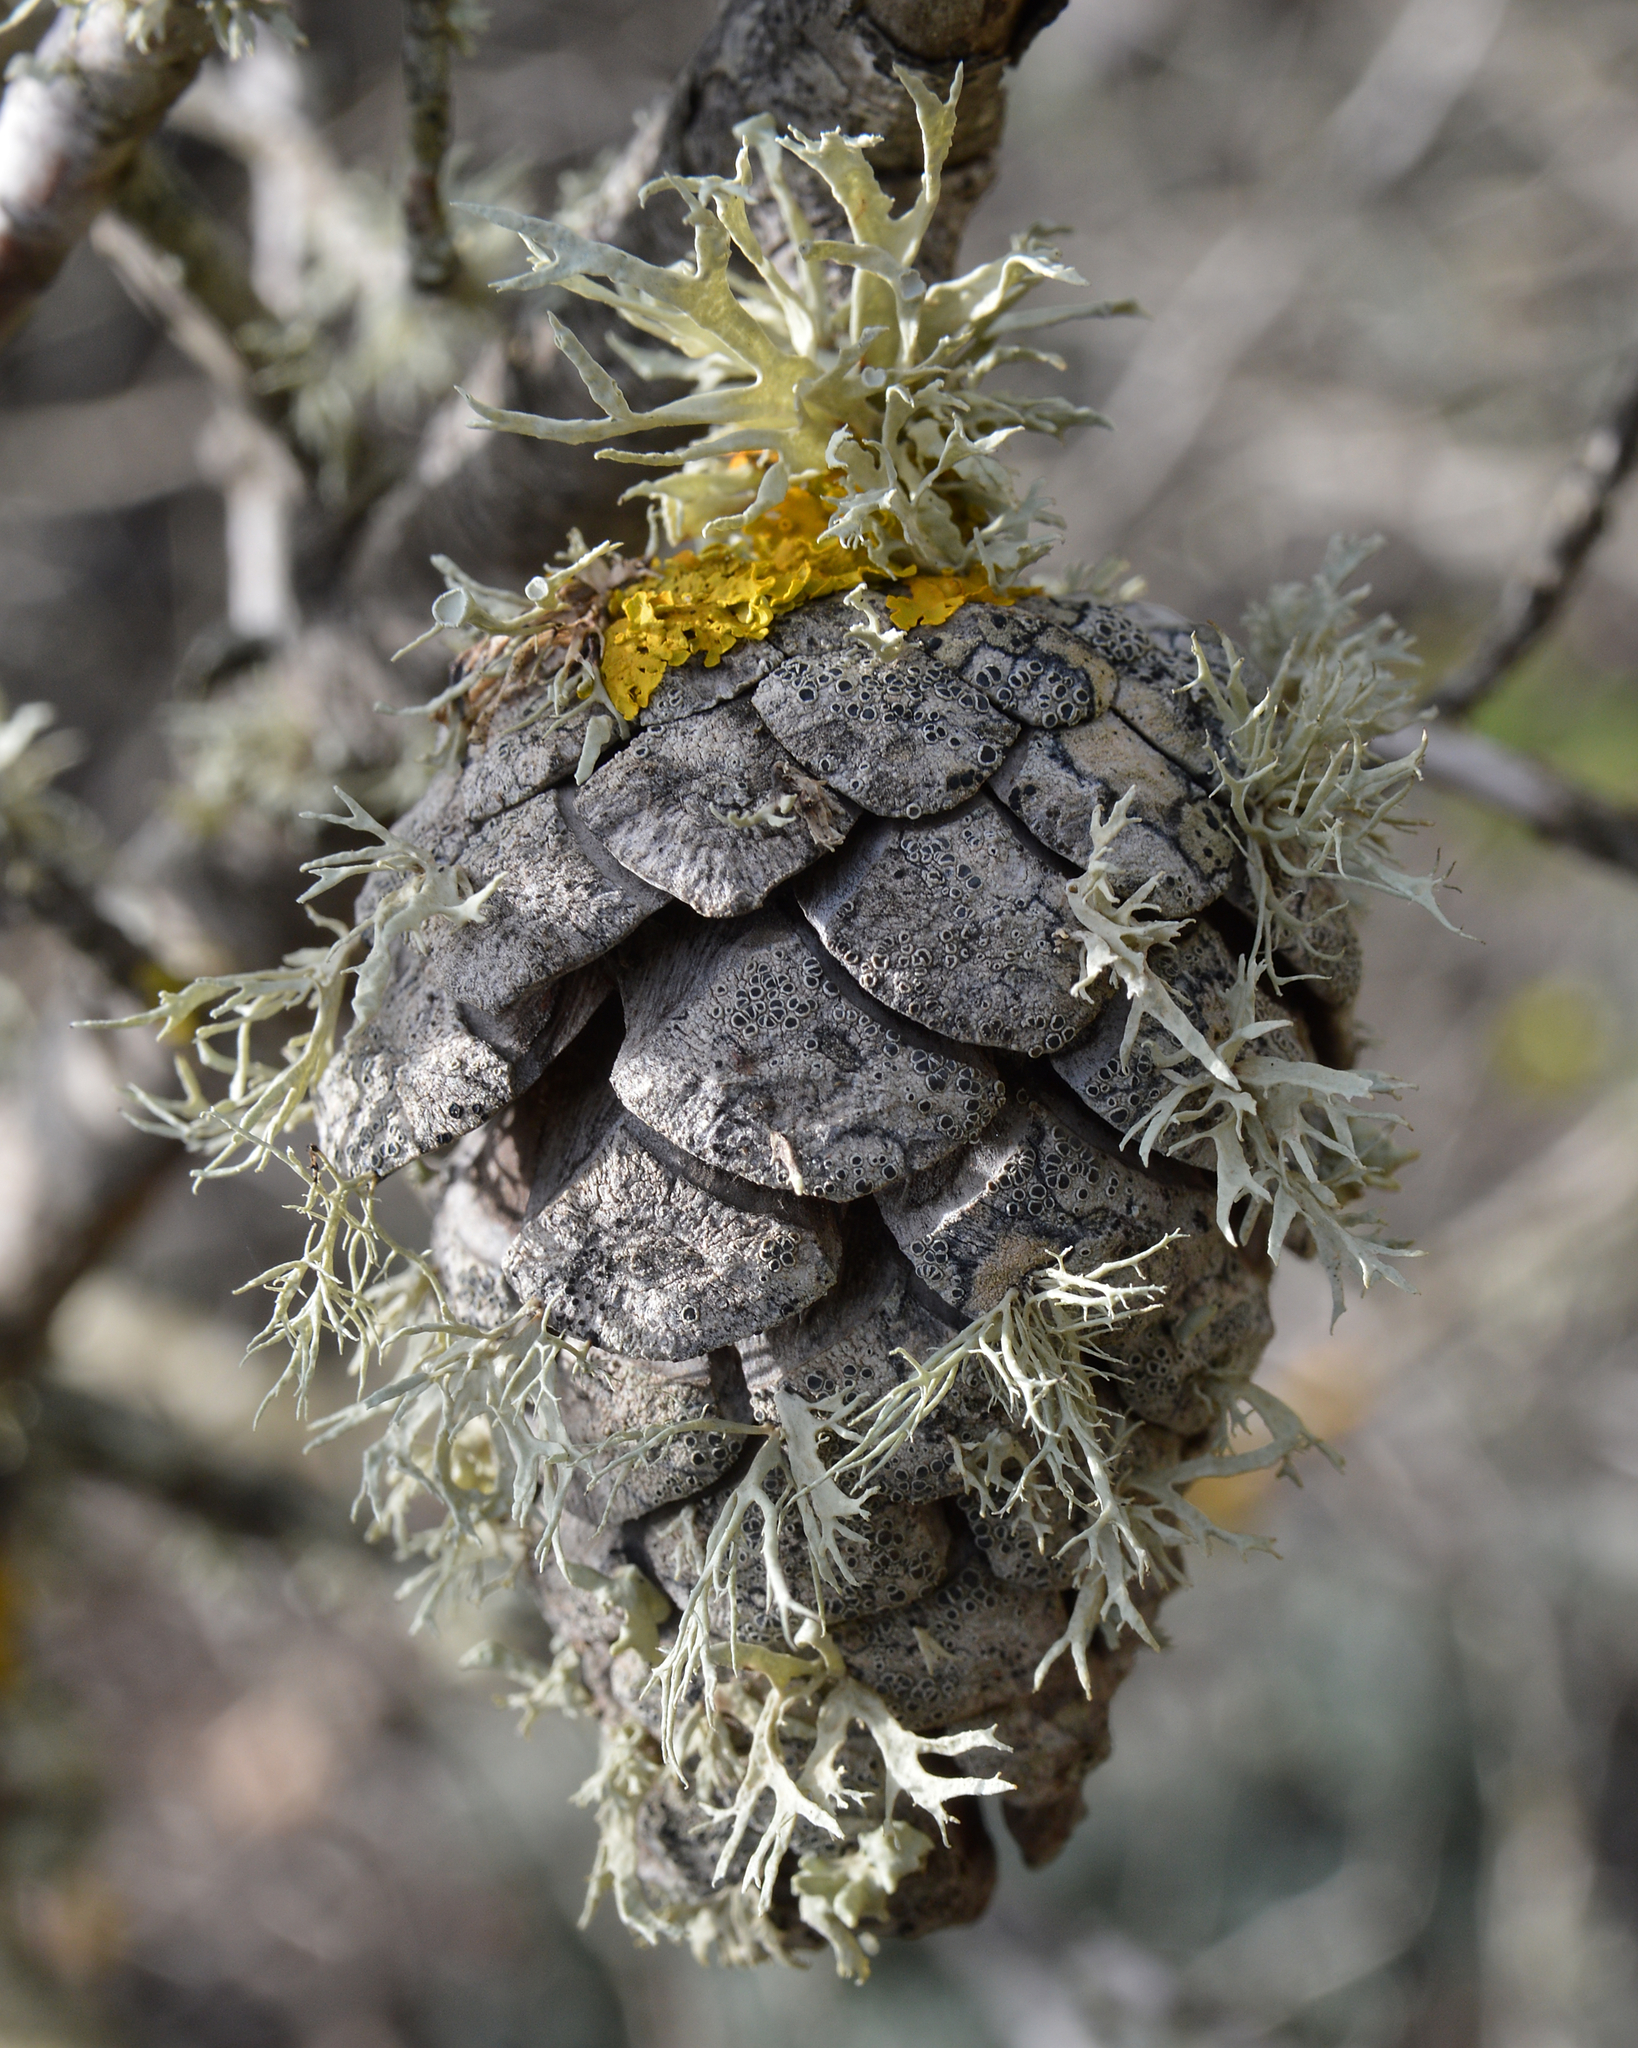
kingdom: Plantae
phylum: Tracheophyta
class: Pinopsida
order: Pinales
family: Pinaceae
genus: Pinus
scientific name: Pinus halepensis
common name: Aleppo pine
